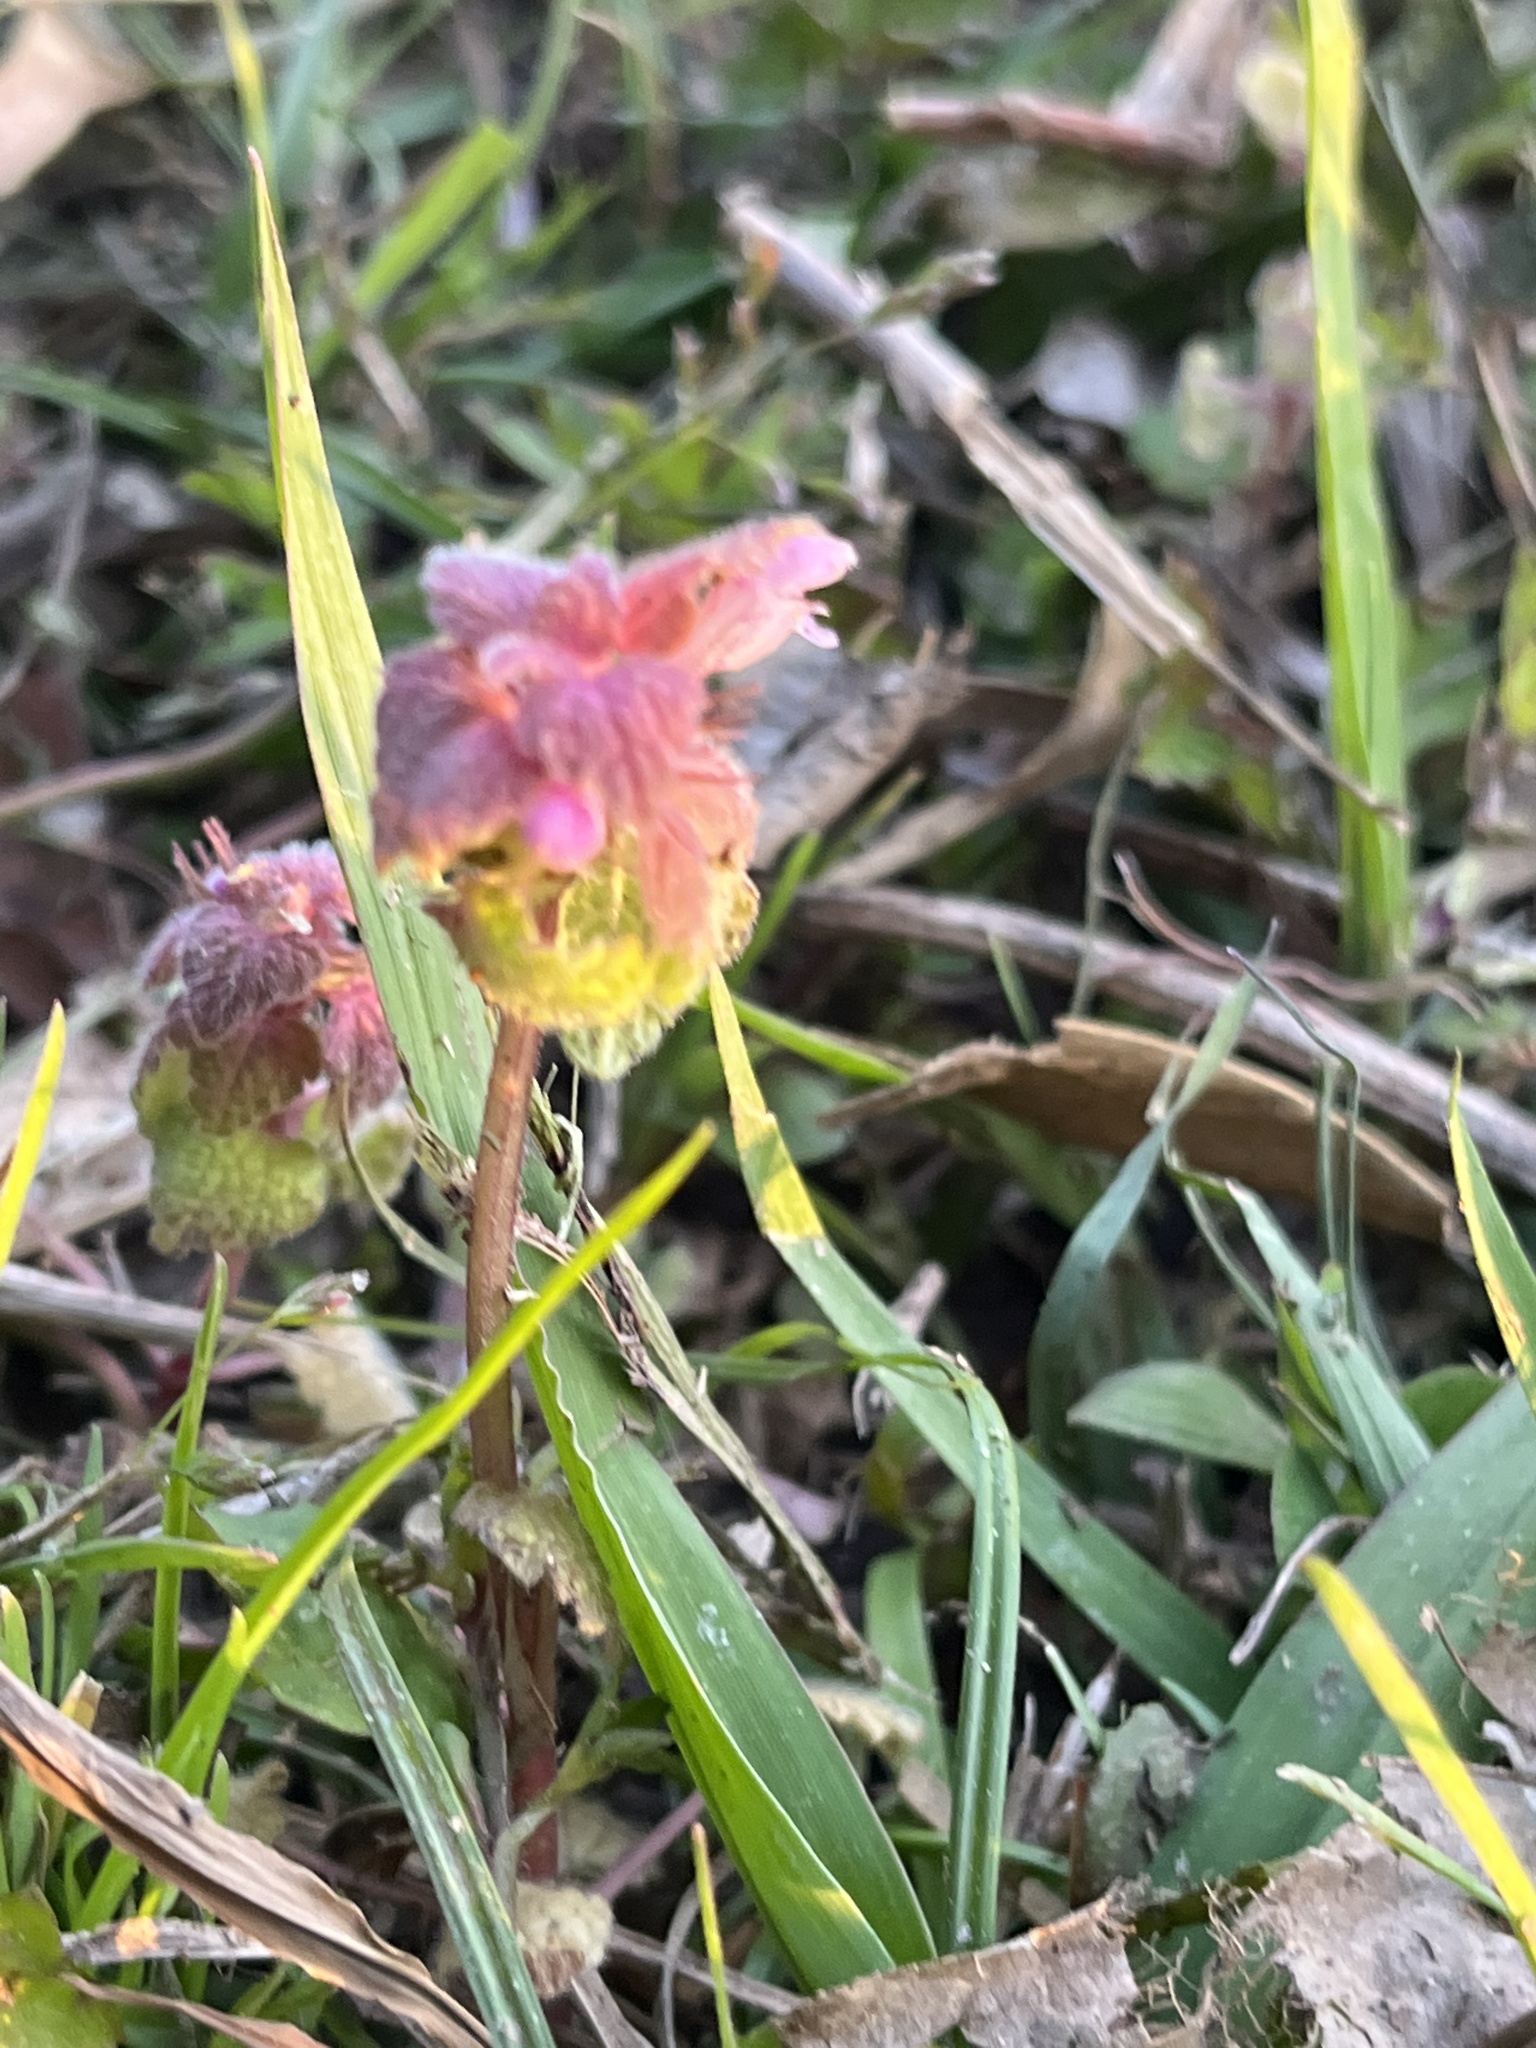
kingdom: Plantae
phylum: Tracheophyta
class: Magnoliopsida
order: Lamiales
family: Lamiaceae
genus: Lamium
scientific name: Lamium purpureum
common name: Red dead-nettle
